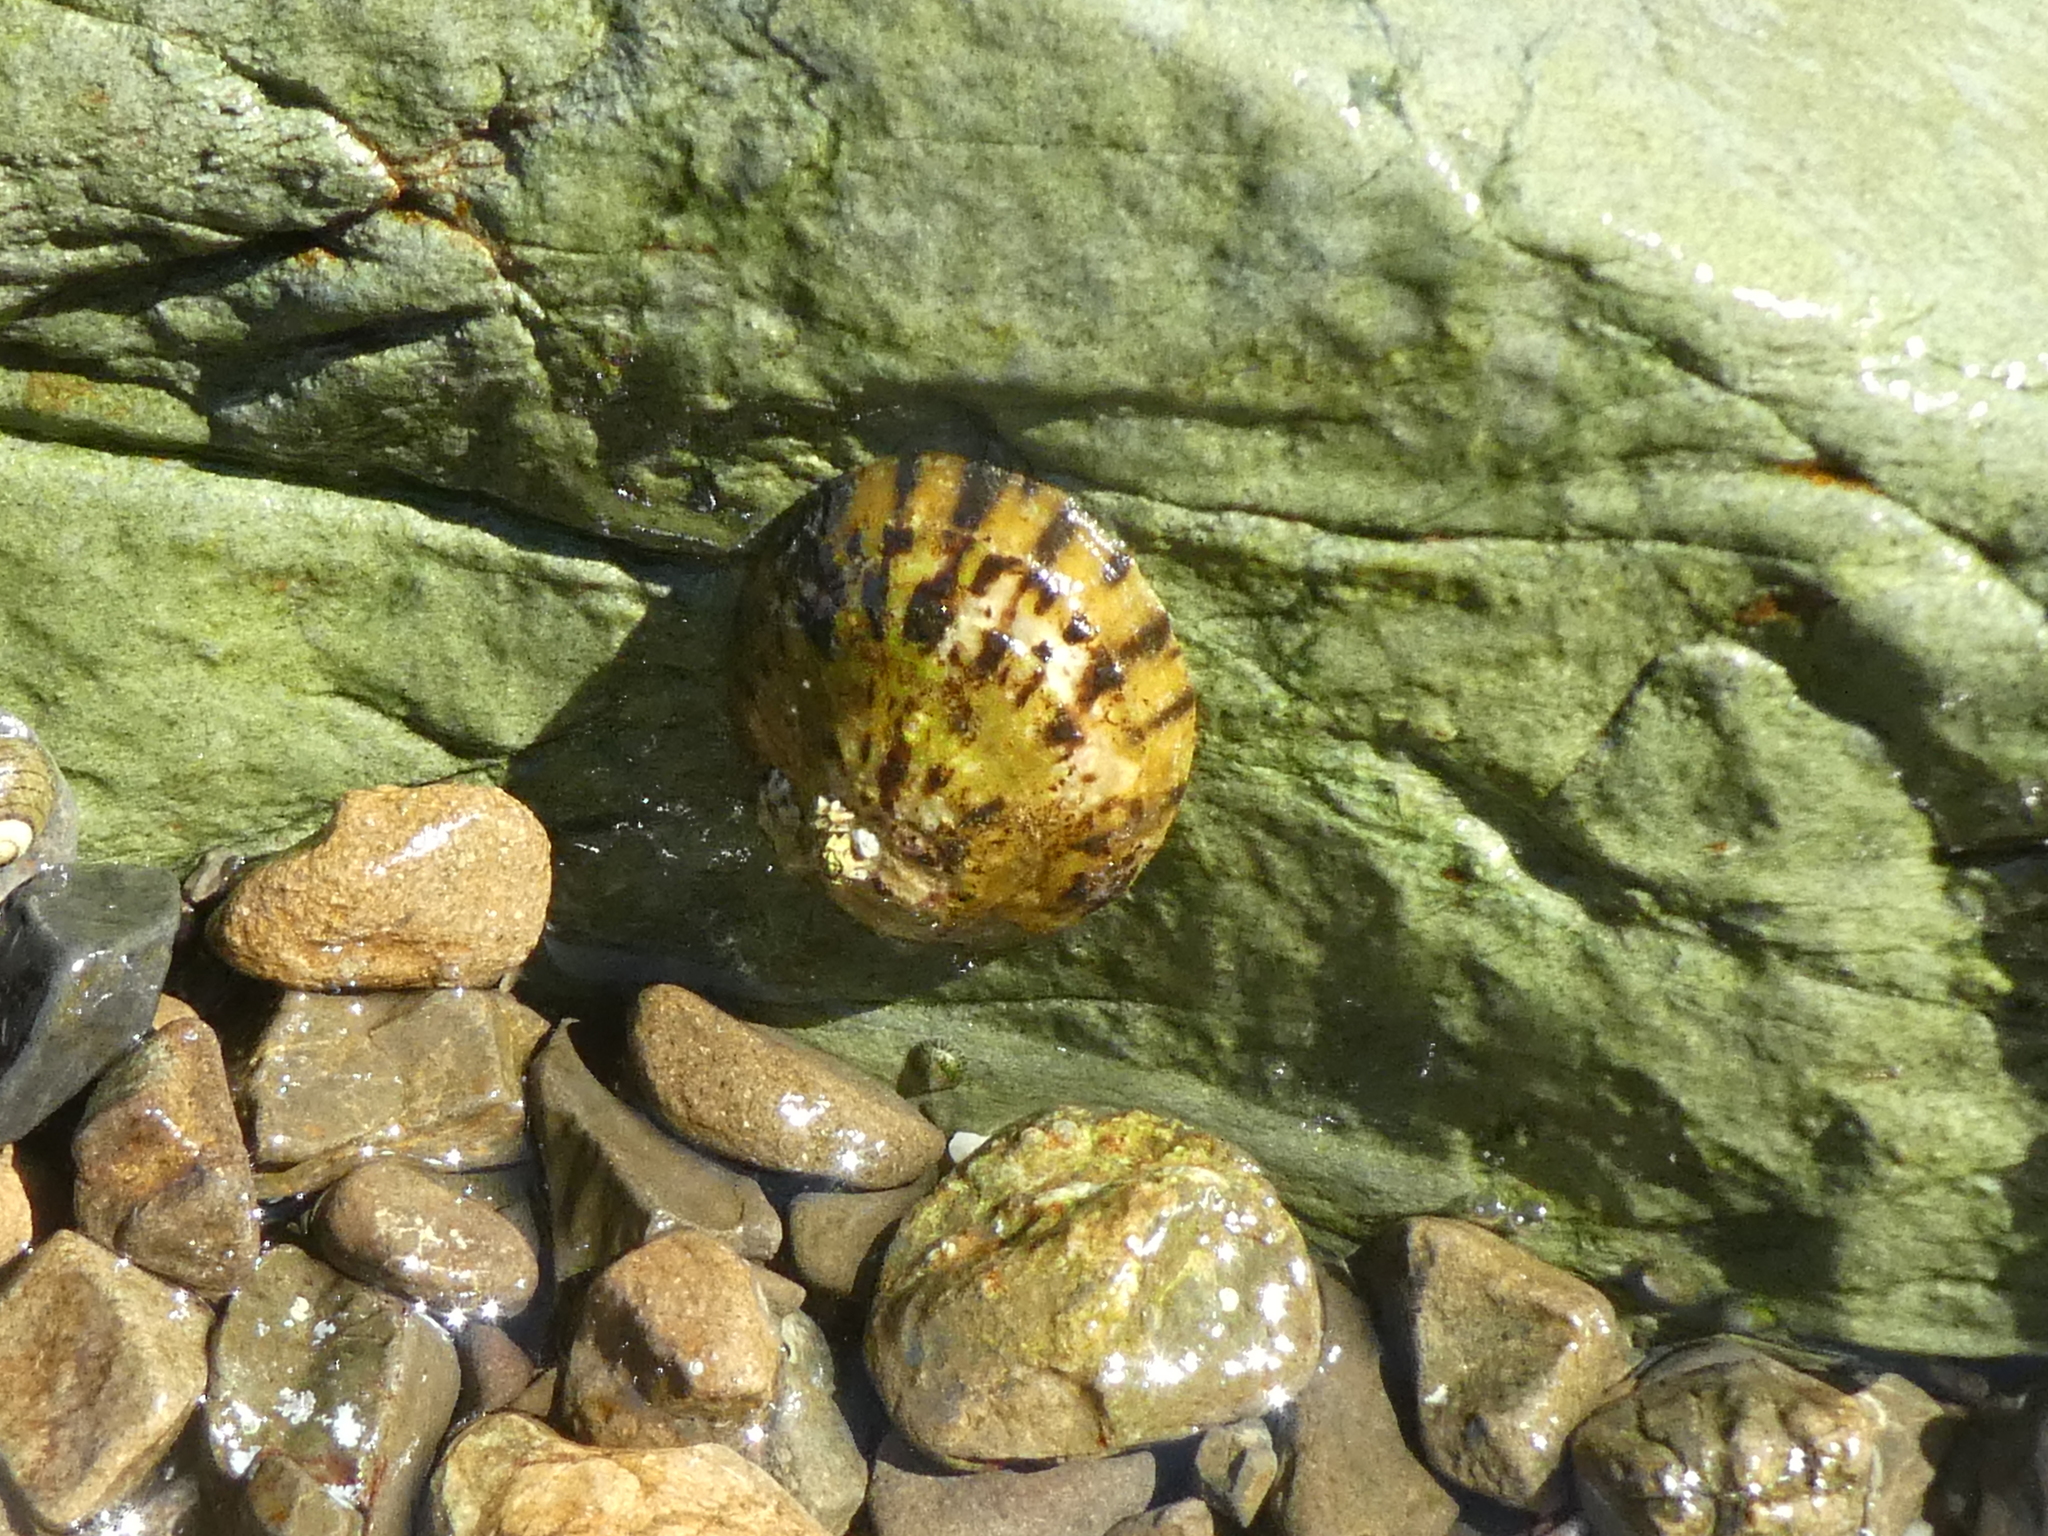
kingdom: Animalia
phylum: Mollusca
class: Gastropoda
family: Nacellidae
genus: Cellana
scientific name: Cellana radians
